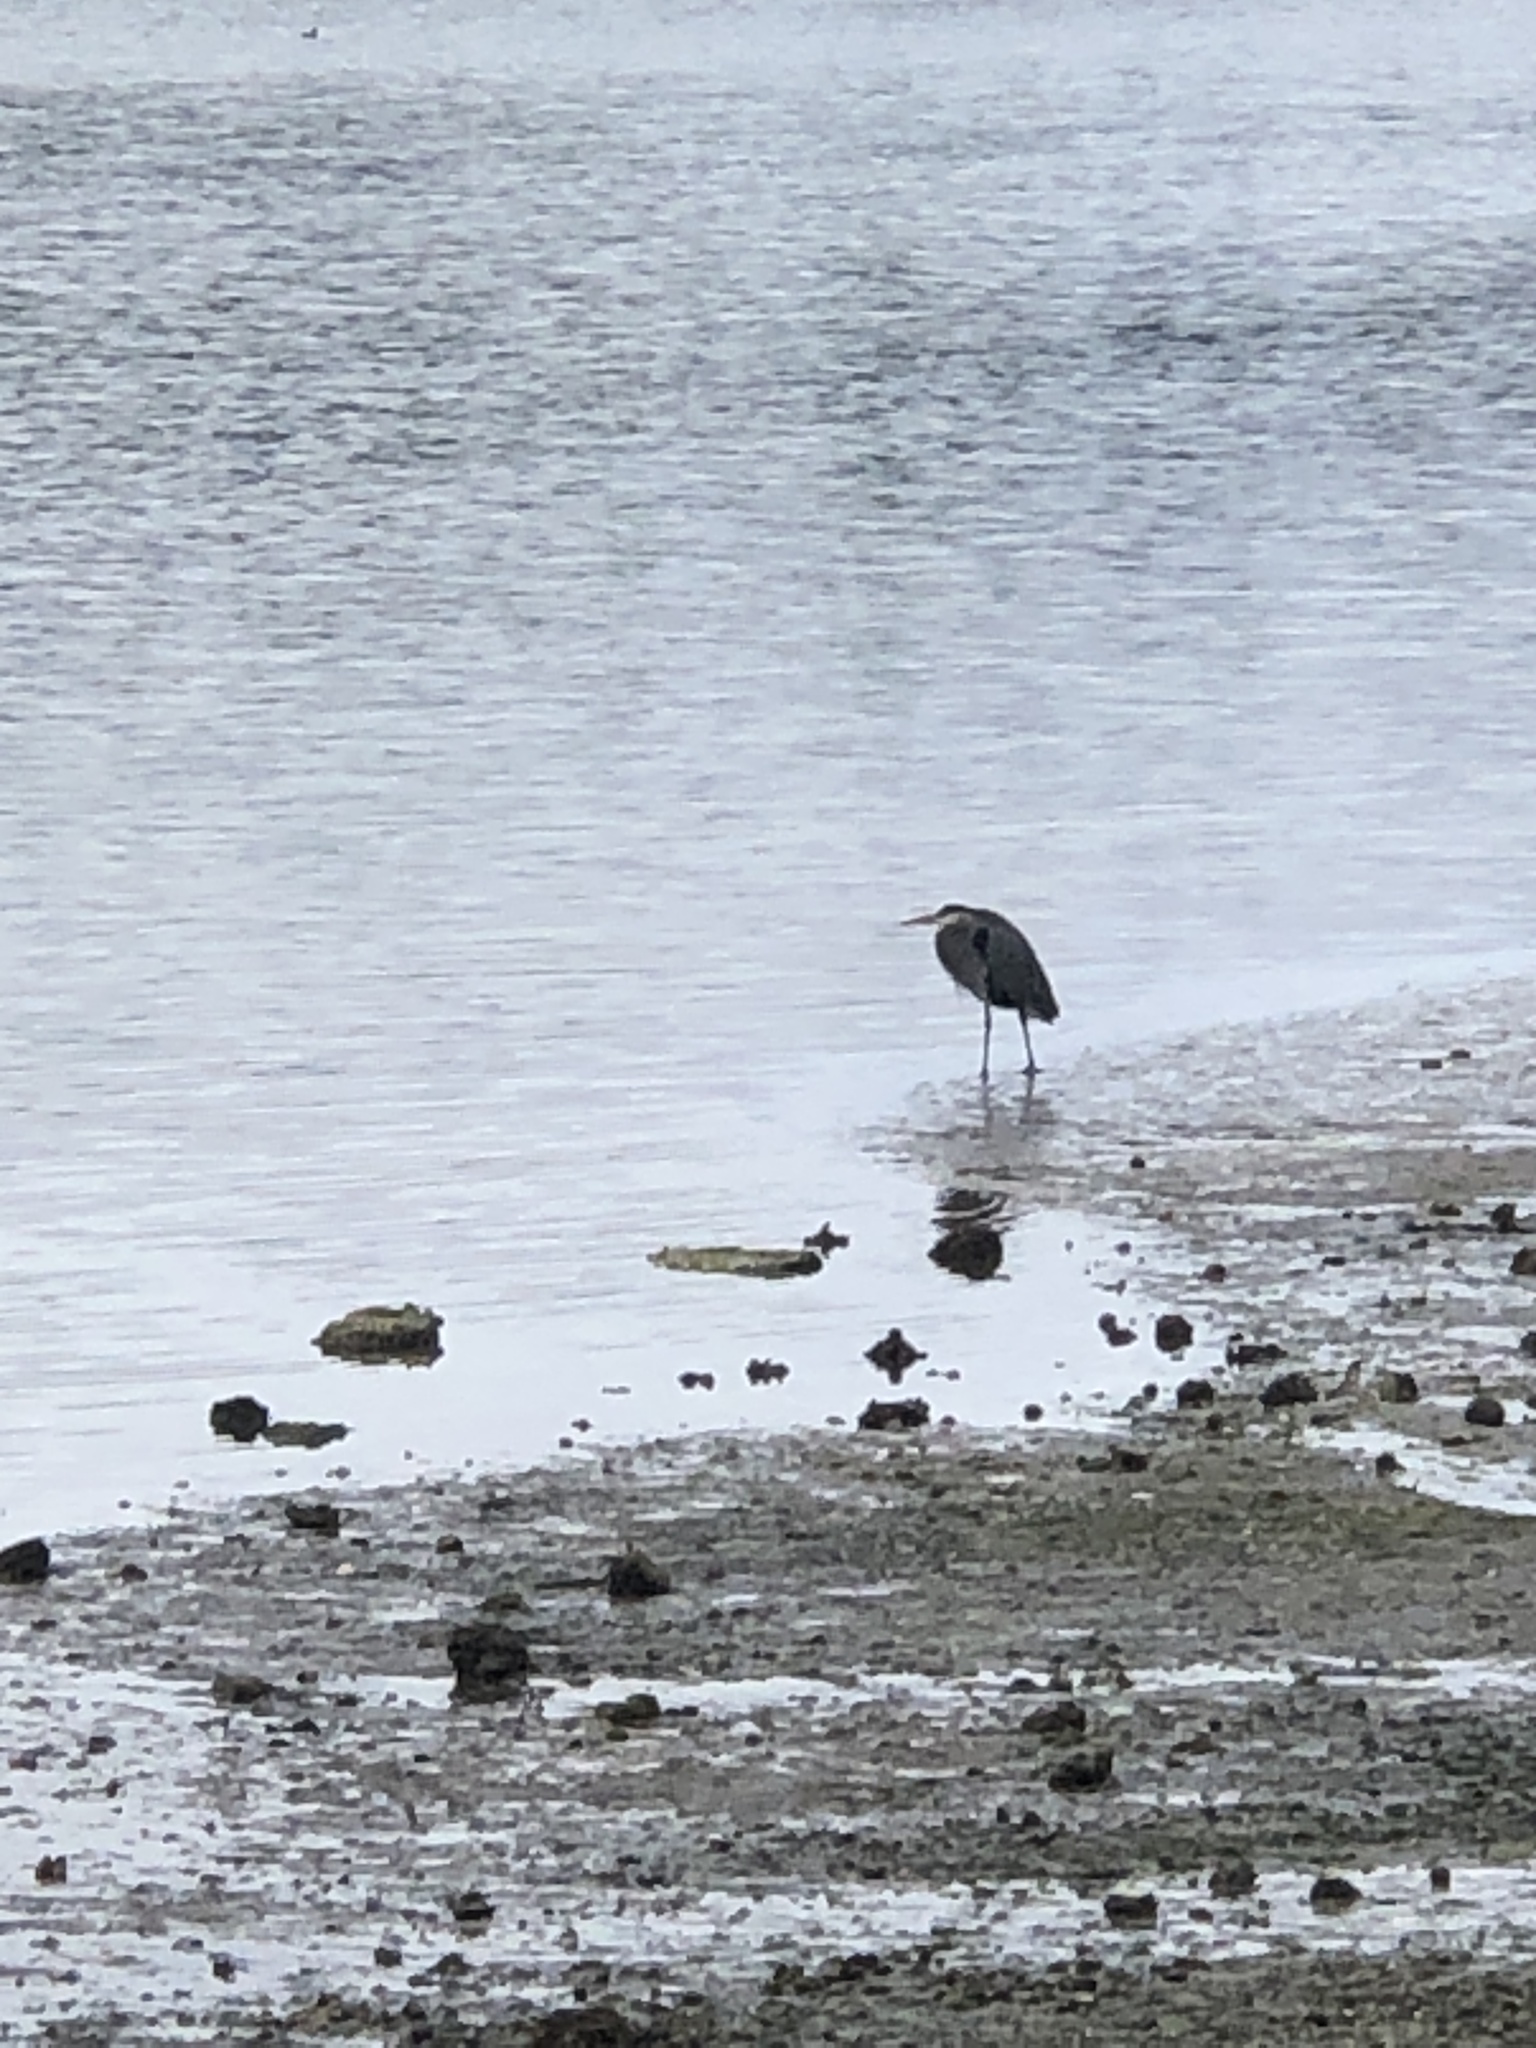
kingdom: Animalia
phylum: Chordata
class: Aves
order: Pelecaniformes
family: Ardeidae
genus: Ardea
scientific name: Ardea herodias
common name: Great blue heron
